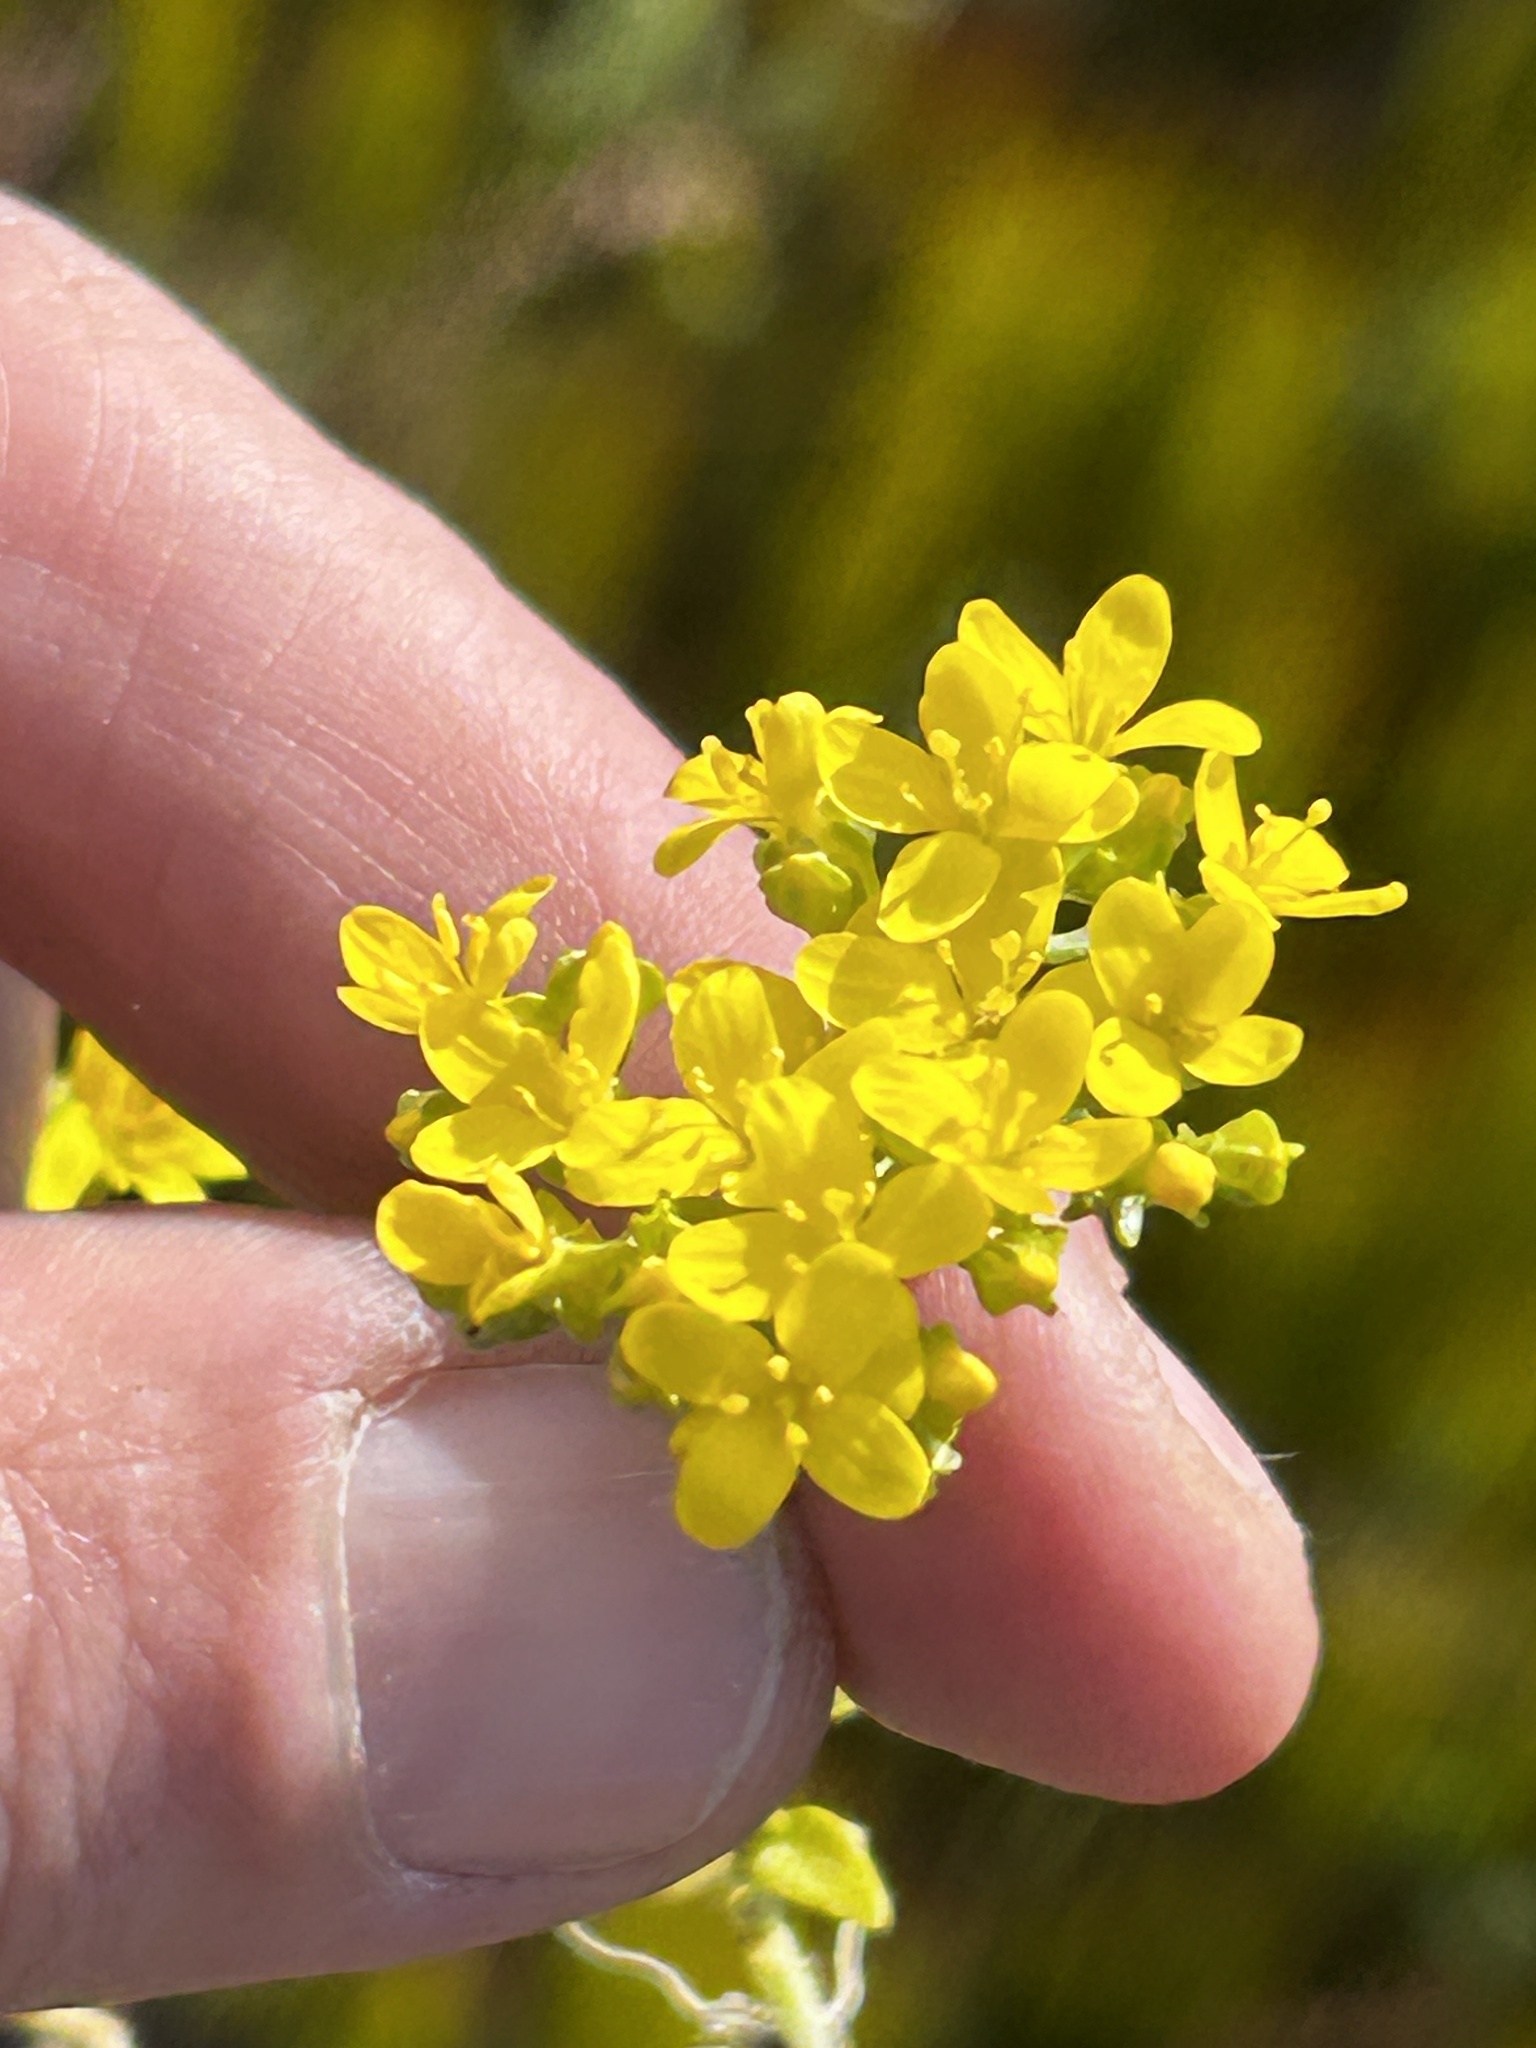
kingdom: Plantae
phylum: Tracheophyta
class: Magnoliopsida
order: Gentianales
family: Gentianaceae
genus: Sebaea
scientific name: Sebaea aurea
